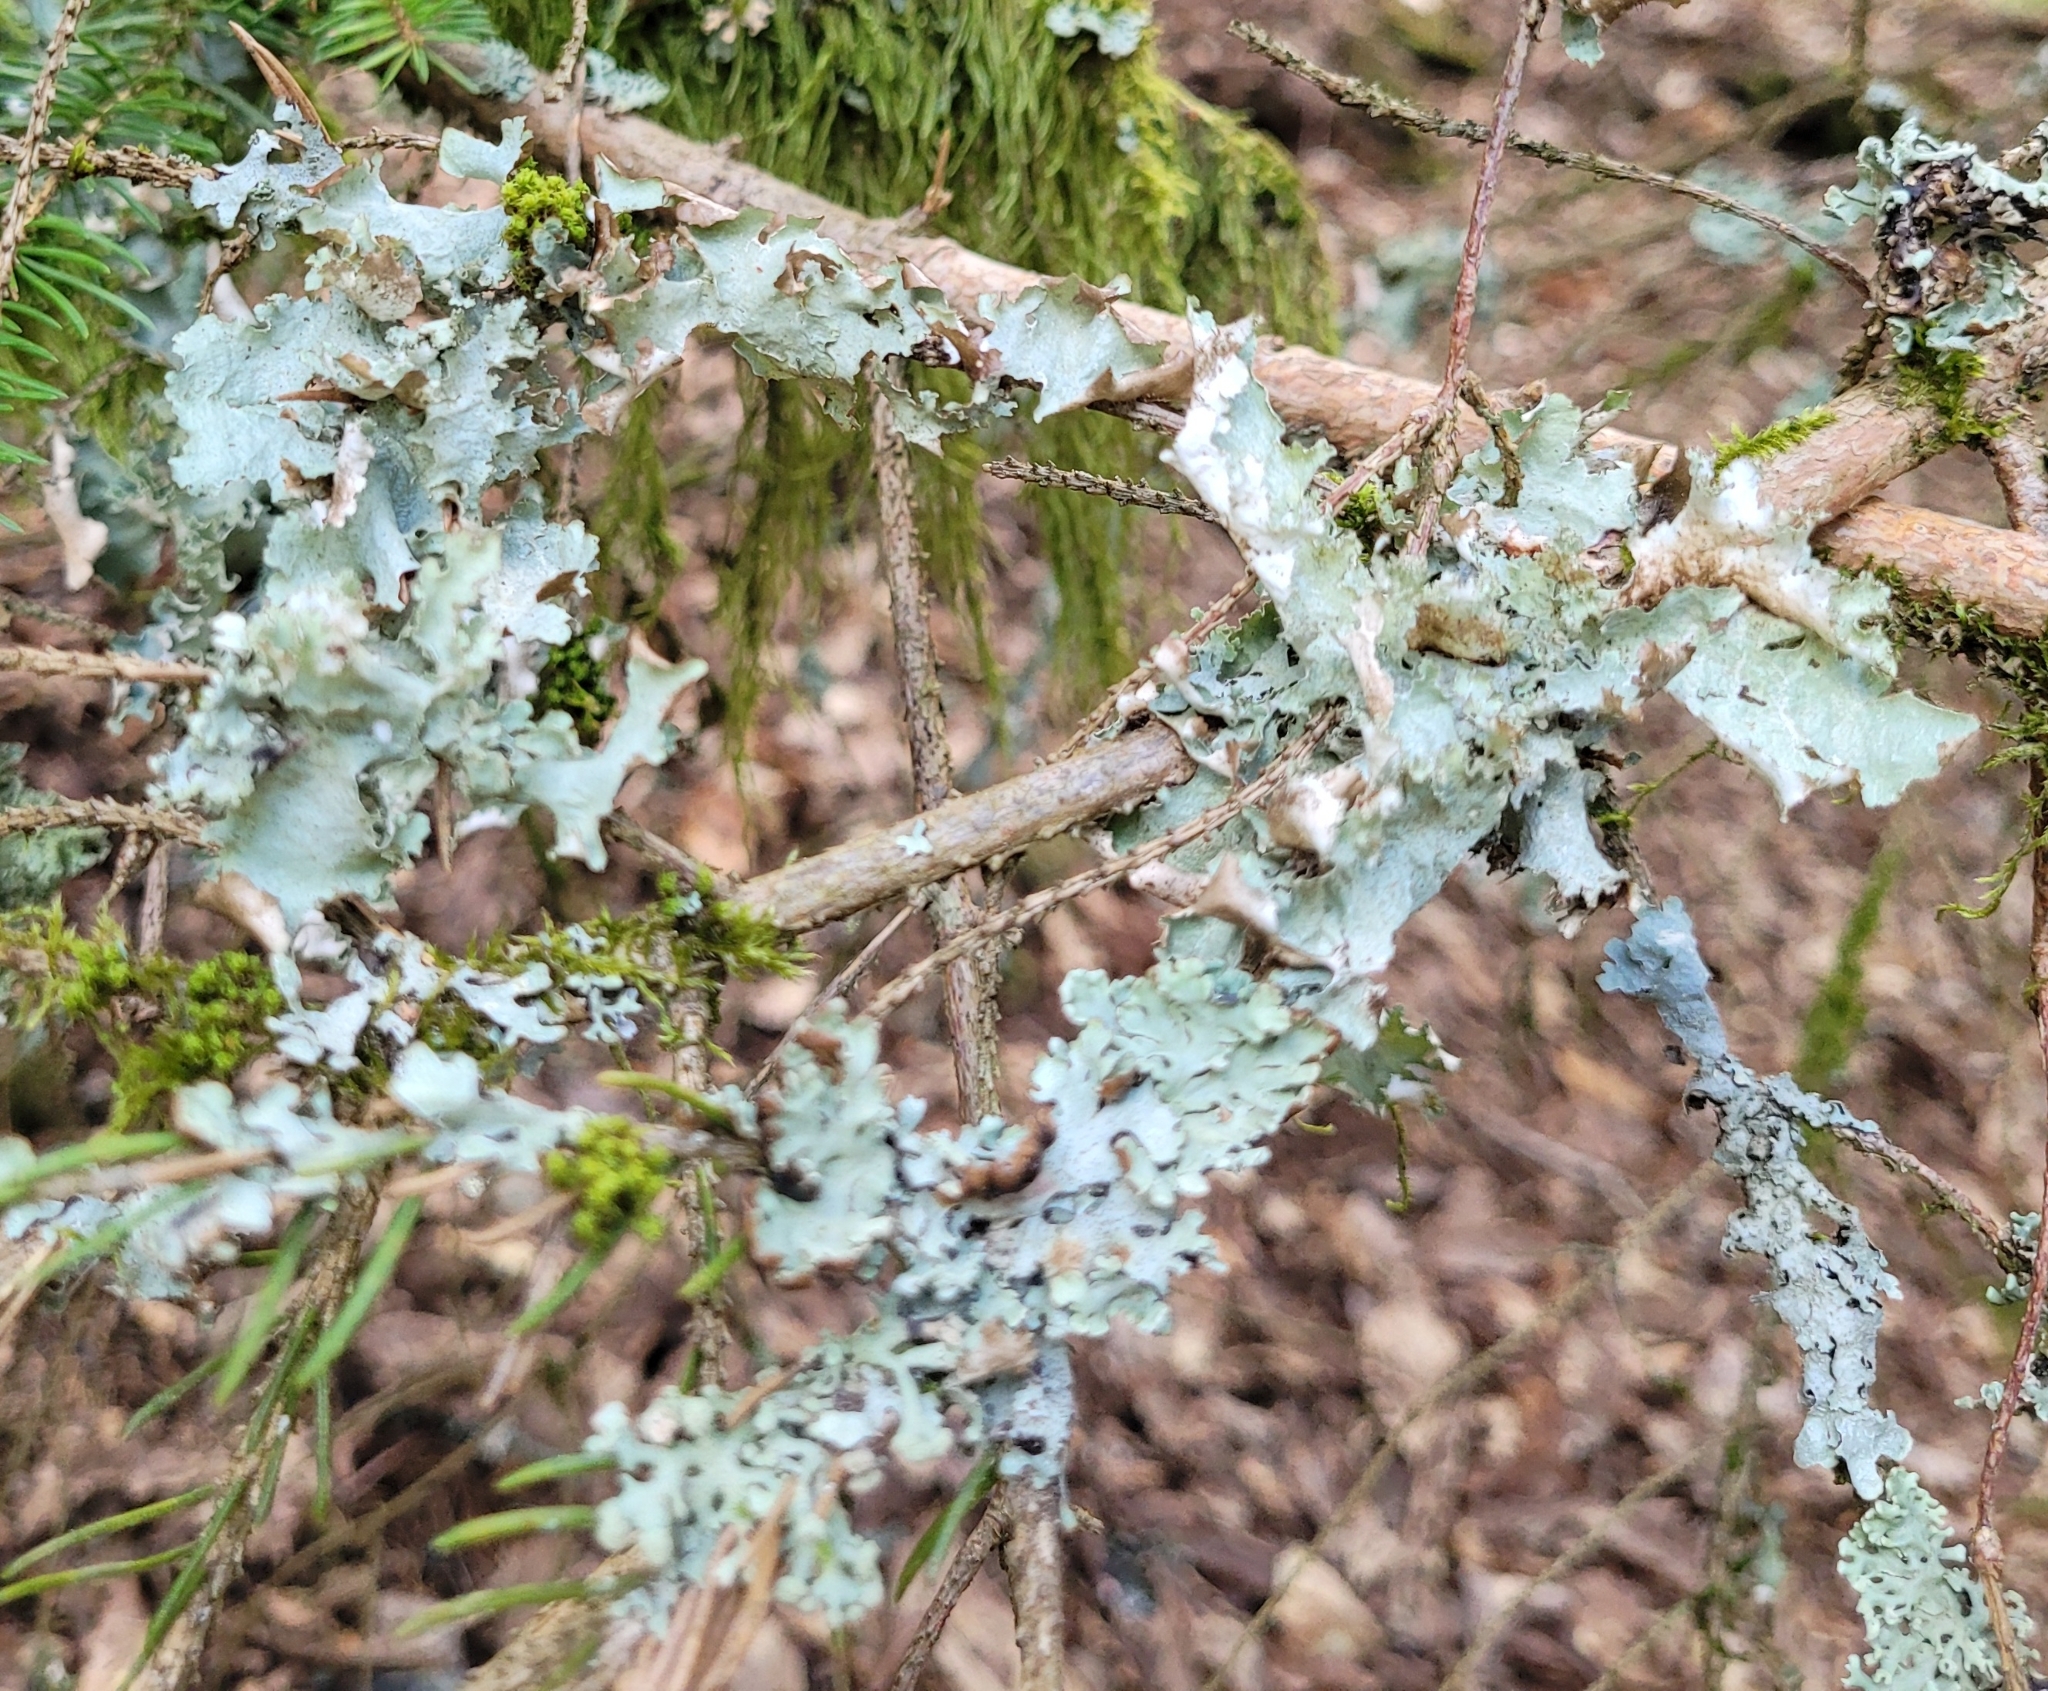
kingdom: Fungi
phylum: Ascomycota
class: Lecanoromycetes
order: Lecanorales
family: Parmeliaceae
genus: Platismatia
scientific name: Platismatia glauca
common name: Varied rag lichen
